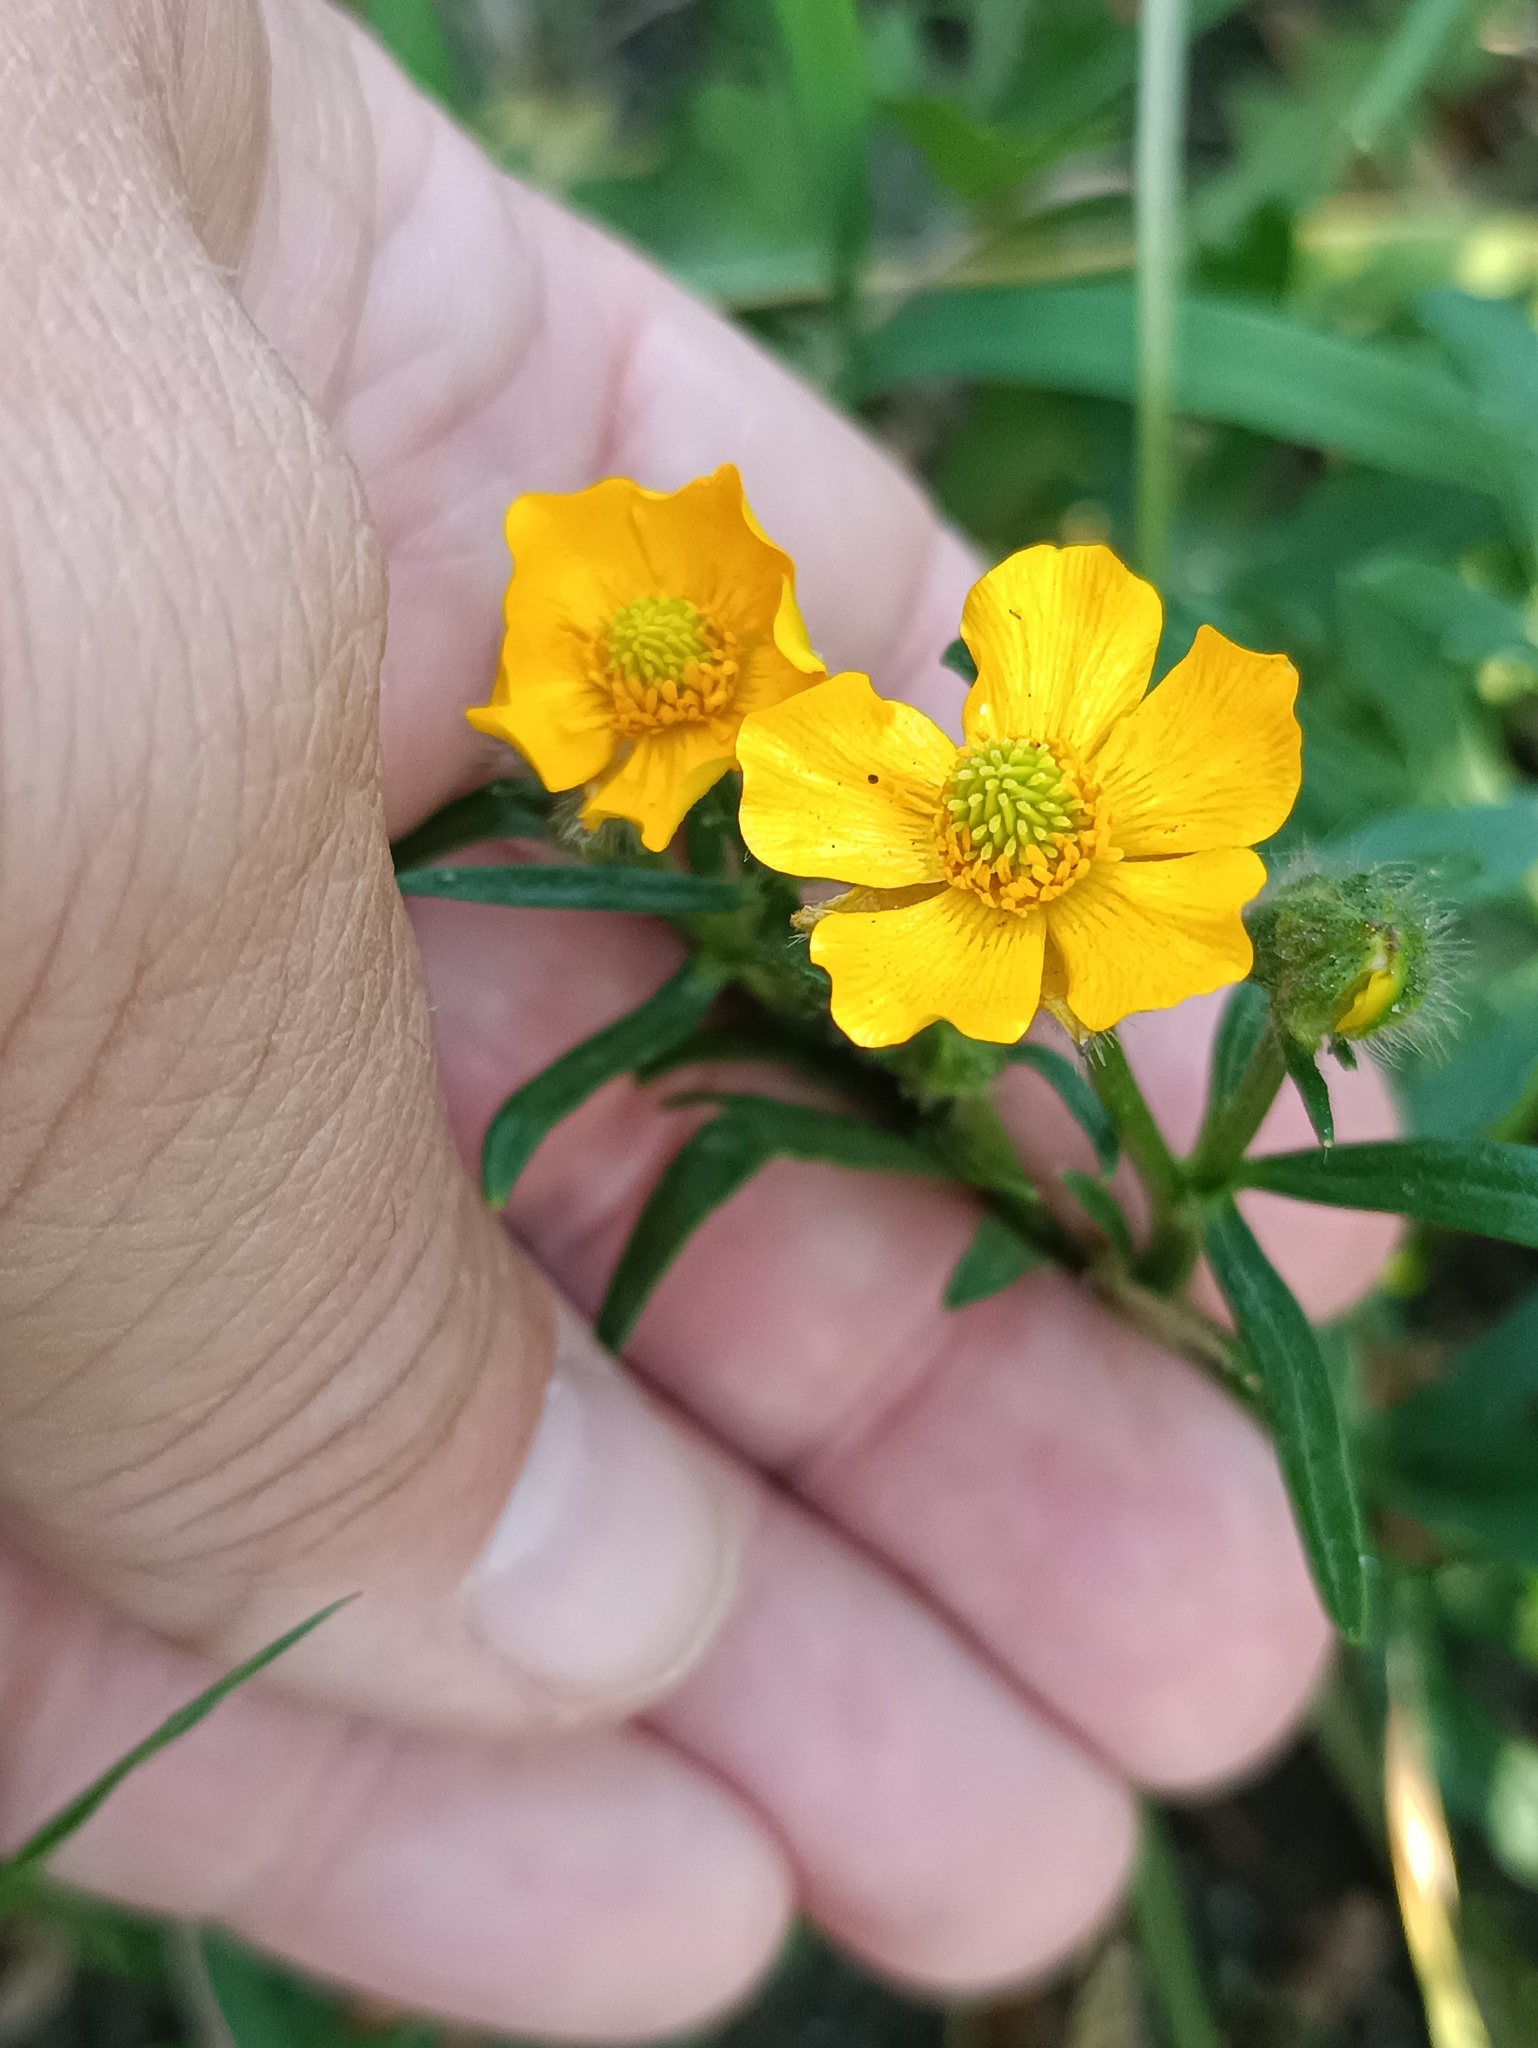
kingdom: Plantae
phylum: Tracheophyta
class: Magnoliopsida
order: Ranunculales
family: Ranunculaceae
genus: Ranunculus
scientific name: Ranunculus polyanthemos
